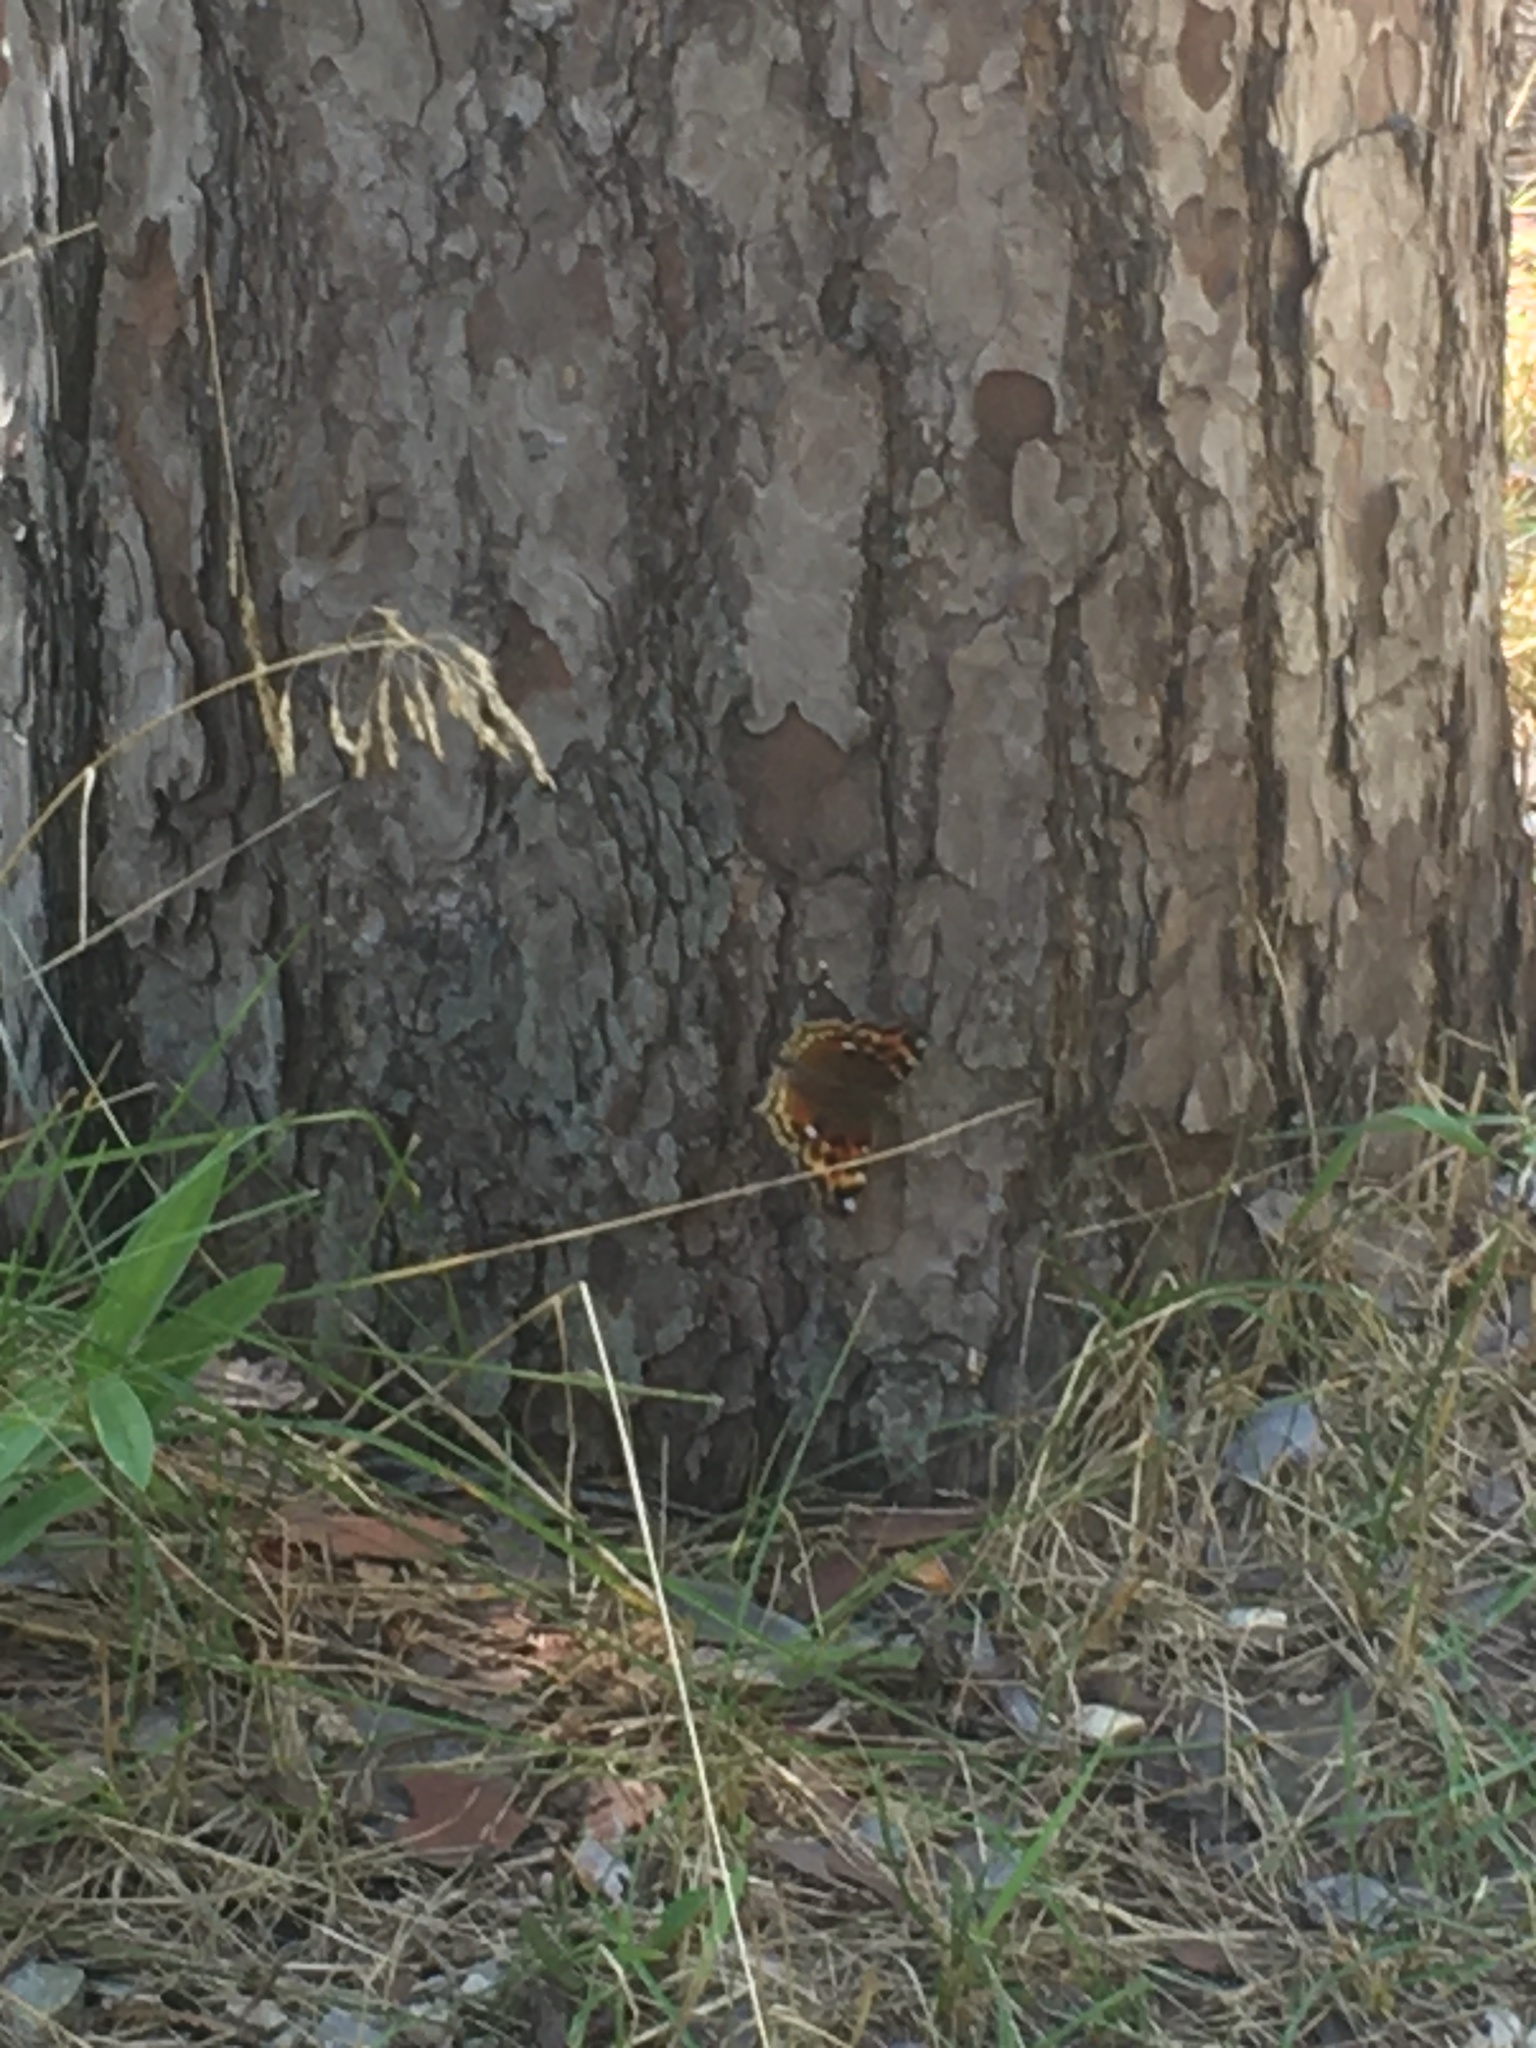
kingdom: Animalia
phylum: Arthropoda
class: Insecta
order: Lepidoptera
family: Nymphalidae
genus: Polygonia
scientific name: Polygonia vaualbum
